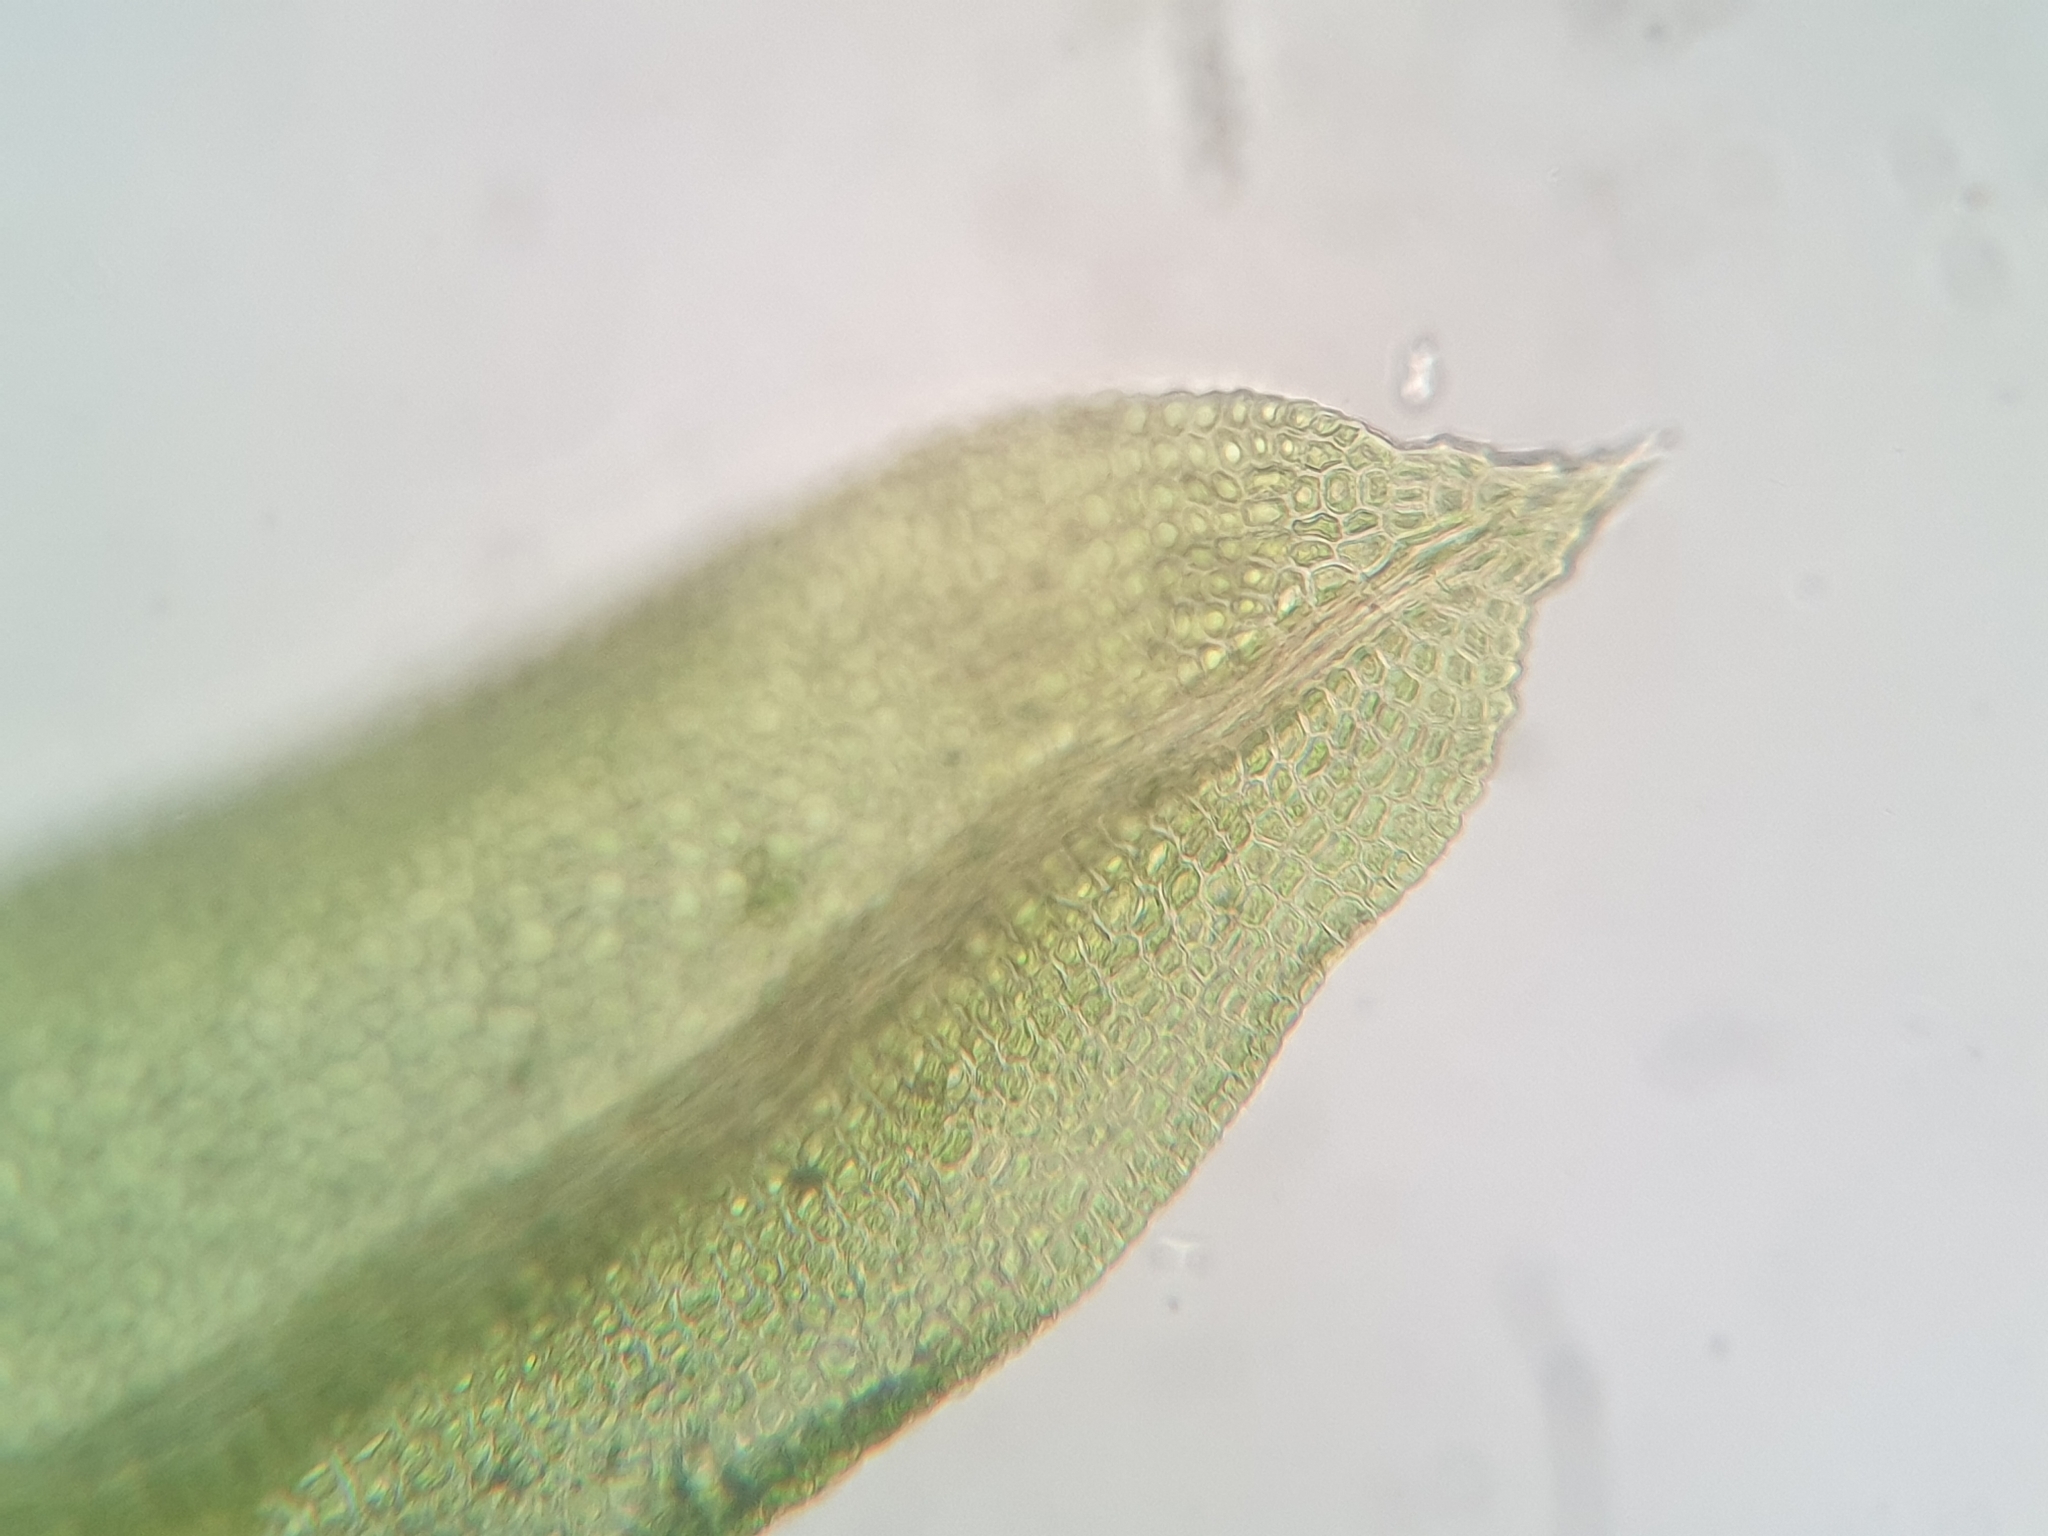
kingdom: Plantae
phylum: Bryophyta
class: Bryopsida
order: Dicranales
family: Fissidentaceae
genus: Fissidens
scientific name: Fissidens exilis
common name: Pygmy pocket moss
